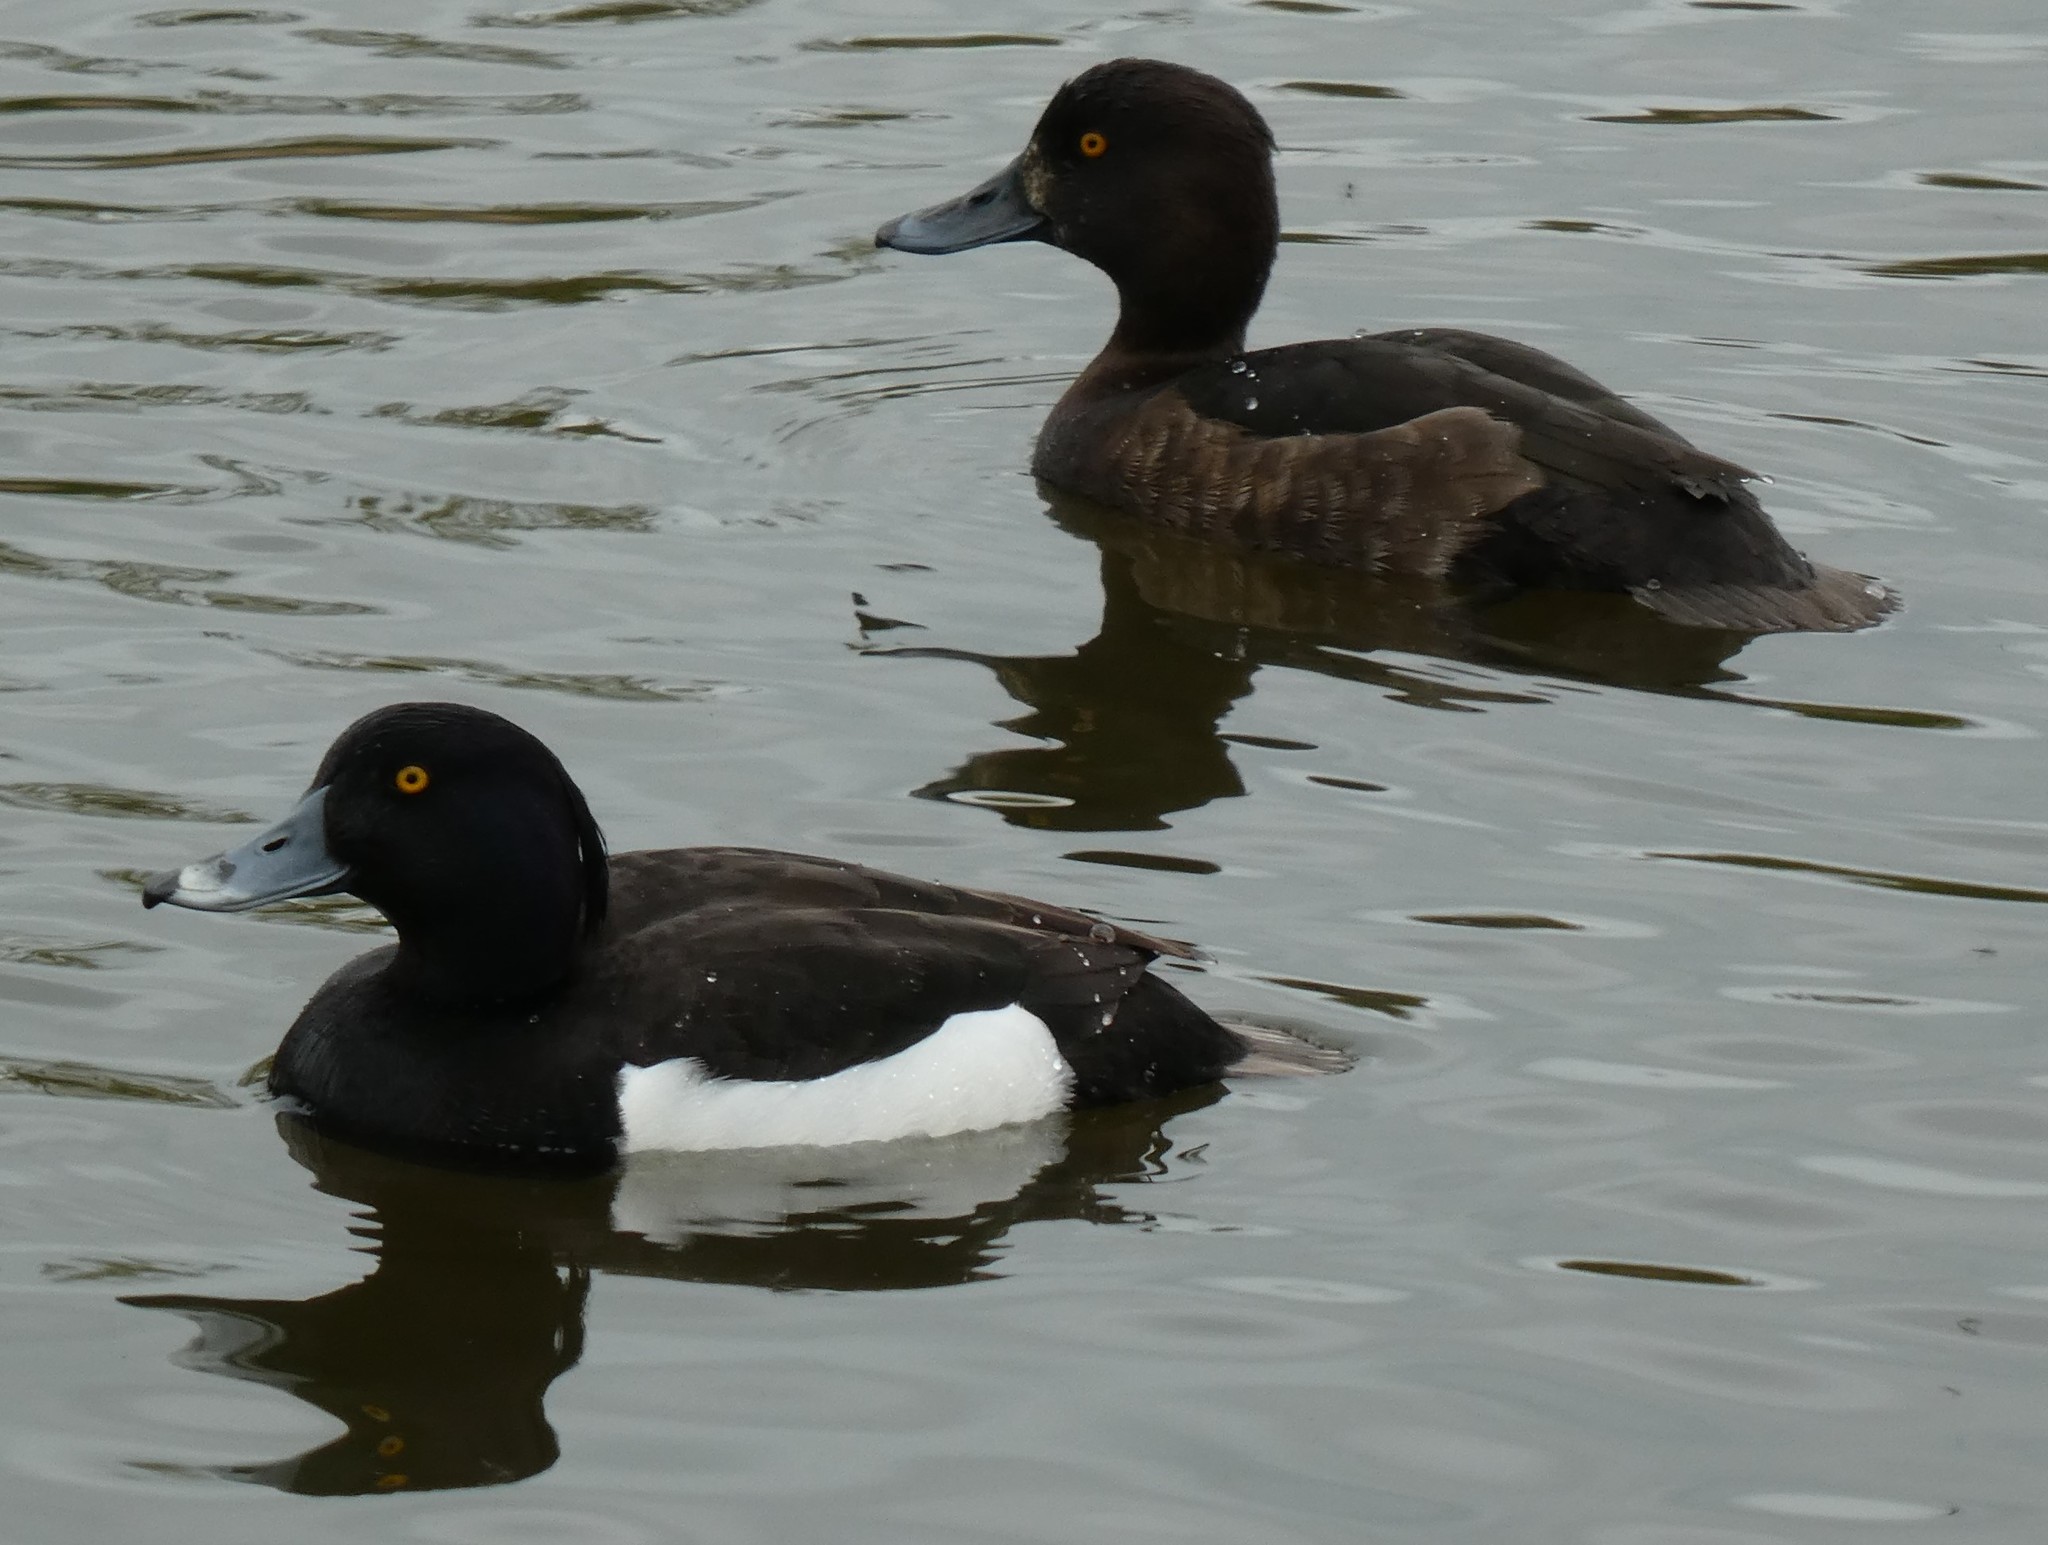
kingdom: Animalia
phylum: Chordata
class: Aves
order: Anseriformes
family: Anatidae
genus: Aythya
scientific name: Aythya fuligula
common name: Tufted duck
